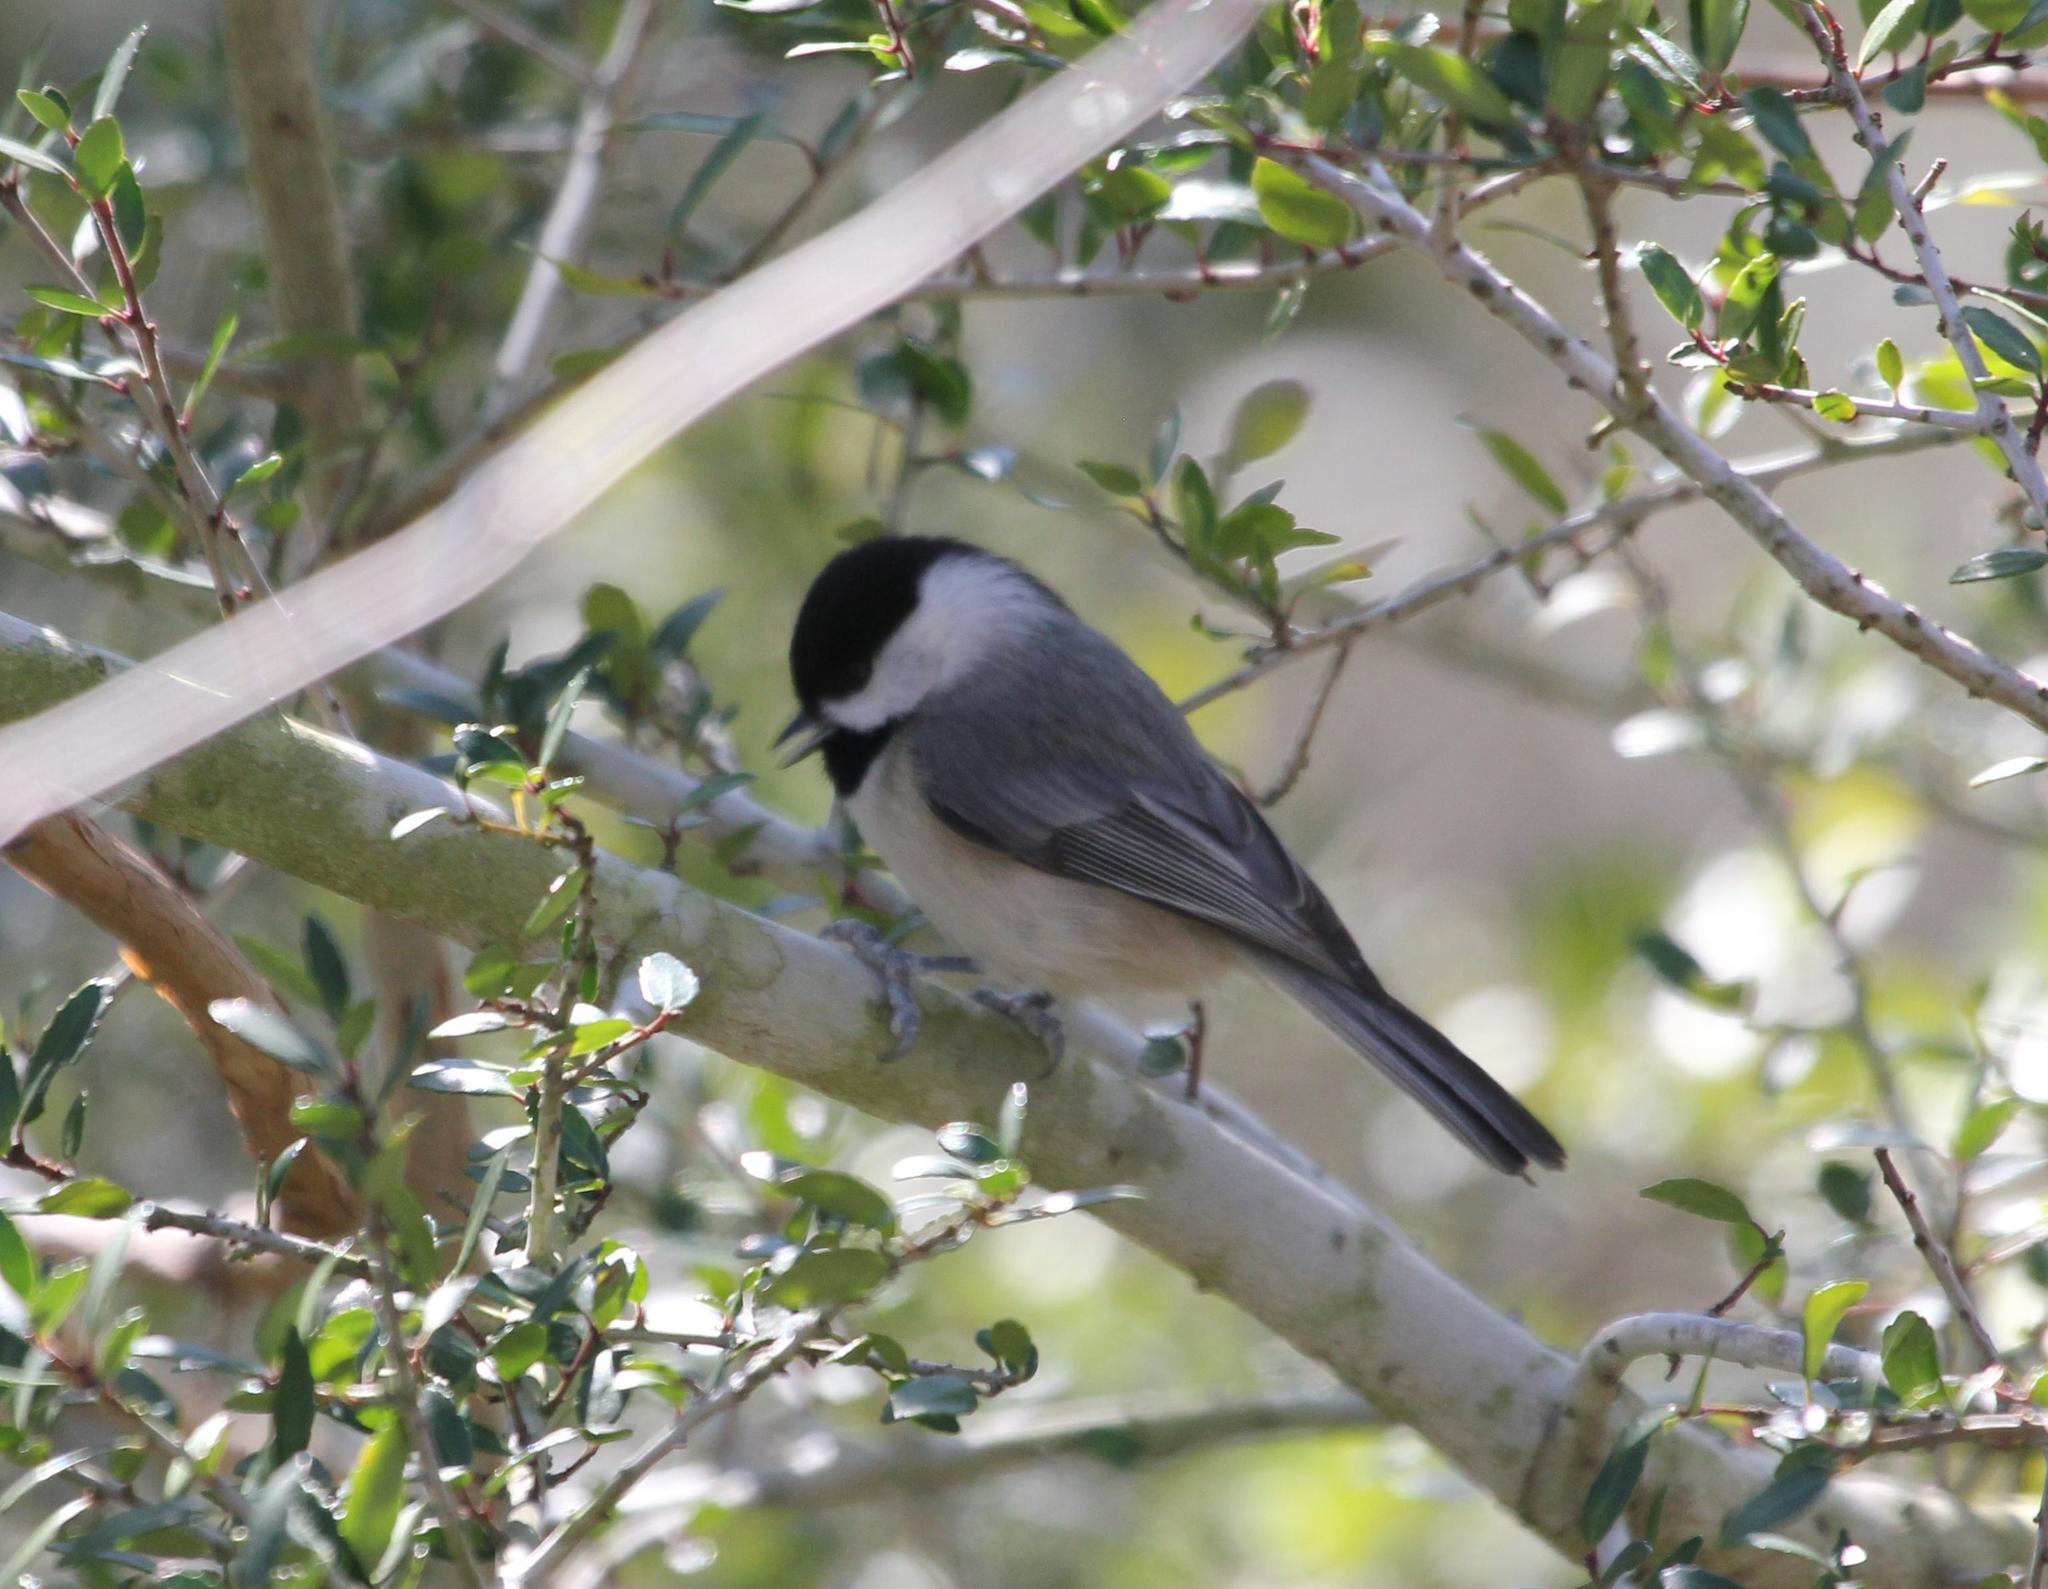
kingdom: Animalia
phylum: Chordata
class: Aves
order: Passeriformes
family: Paridae
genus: Poecile
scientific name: Poecile carolinensis
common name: Carolina chickadee
